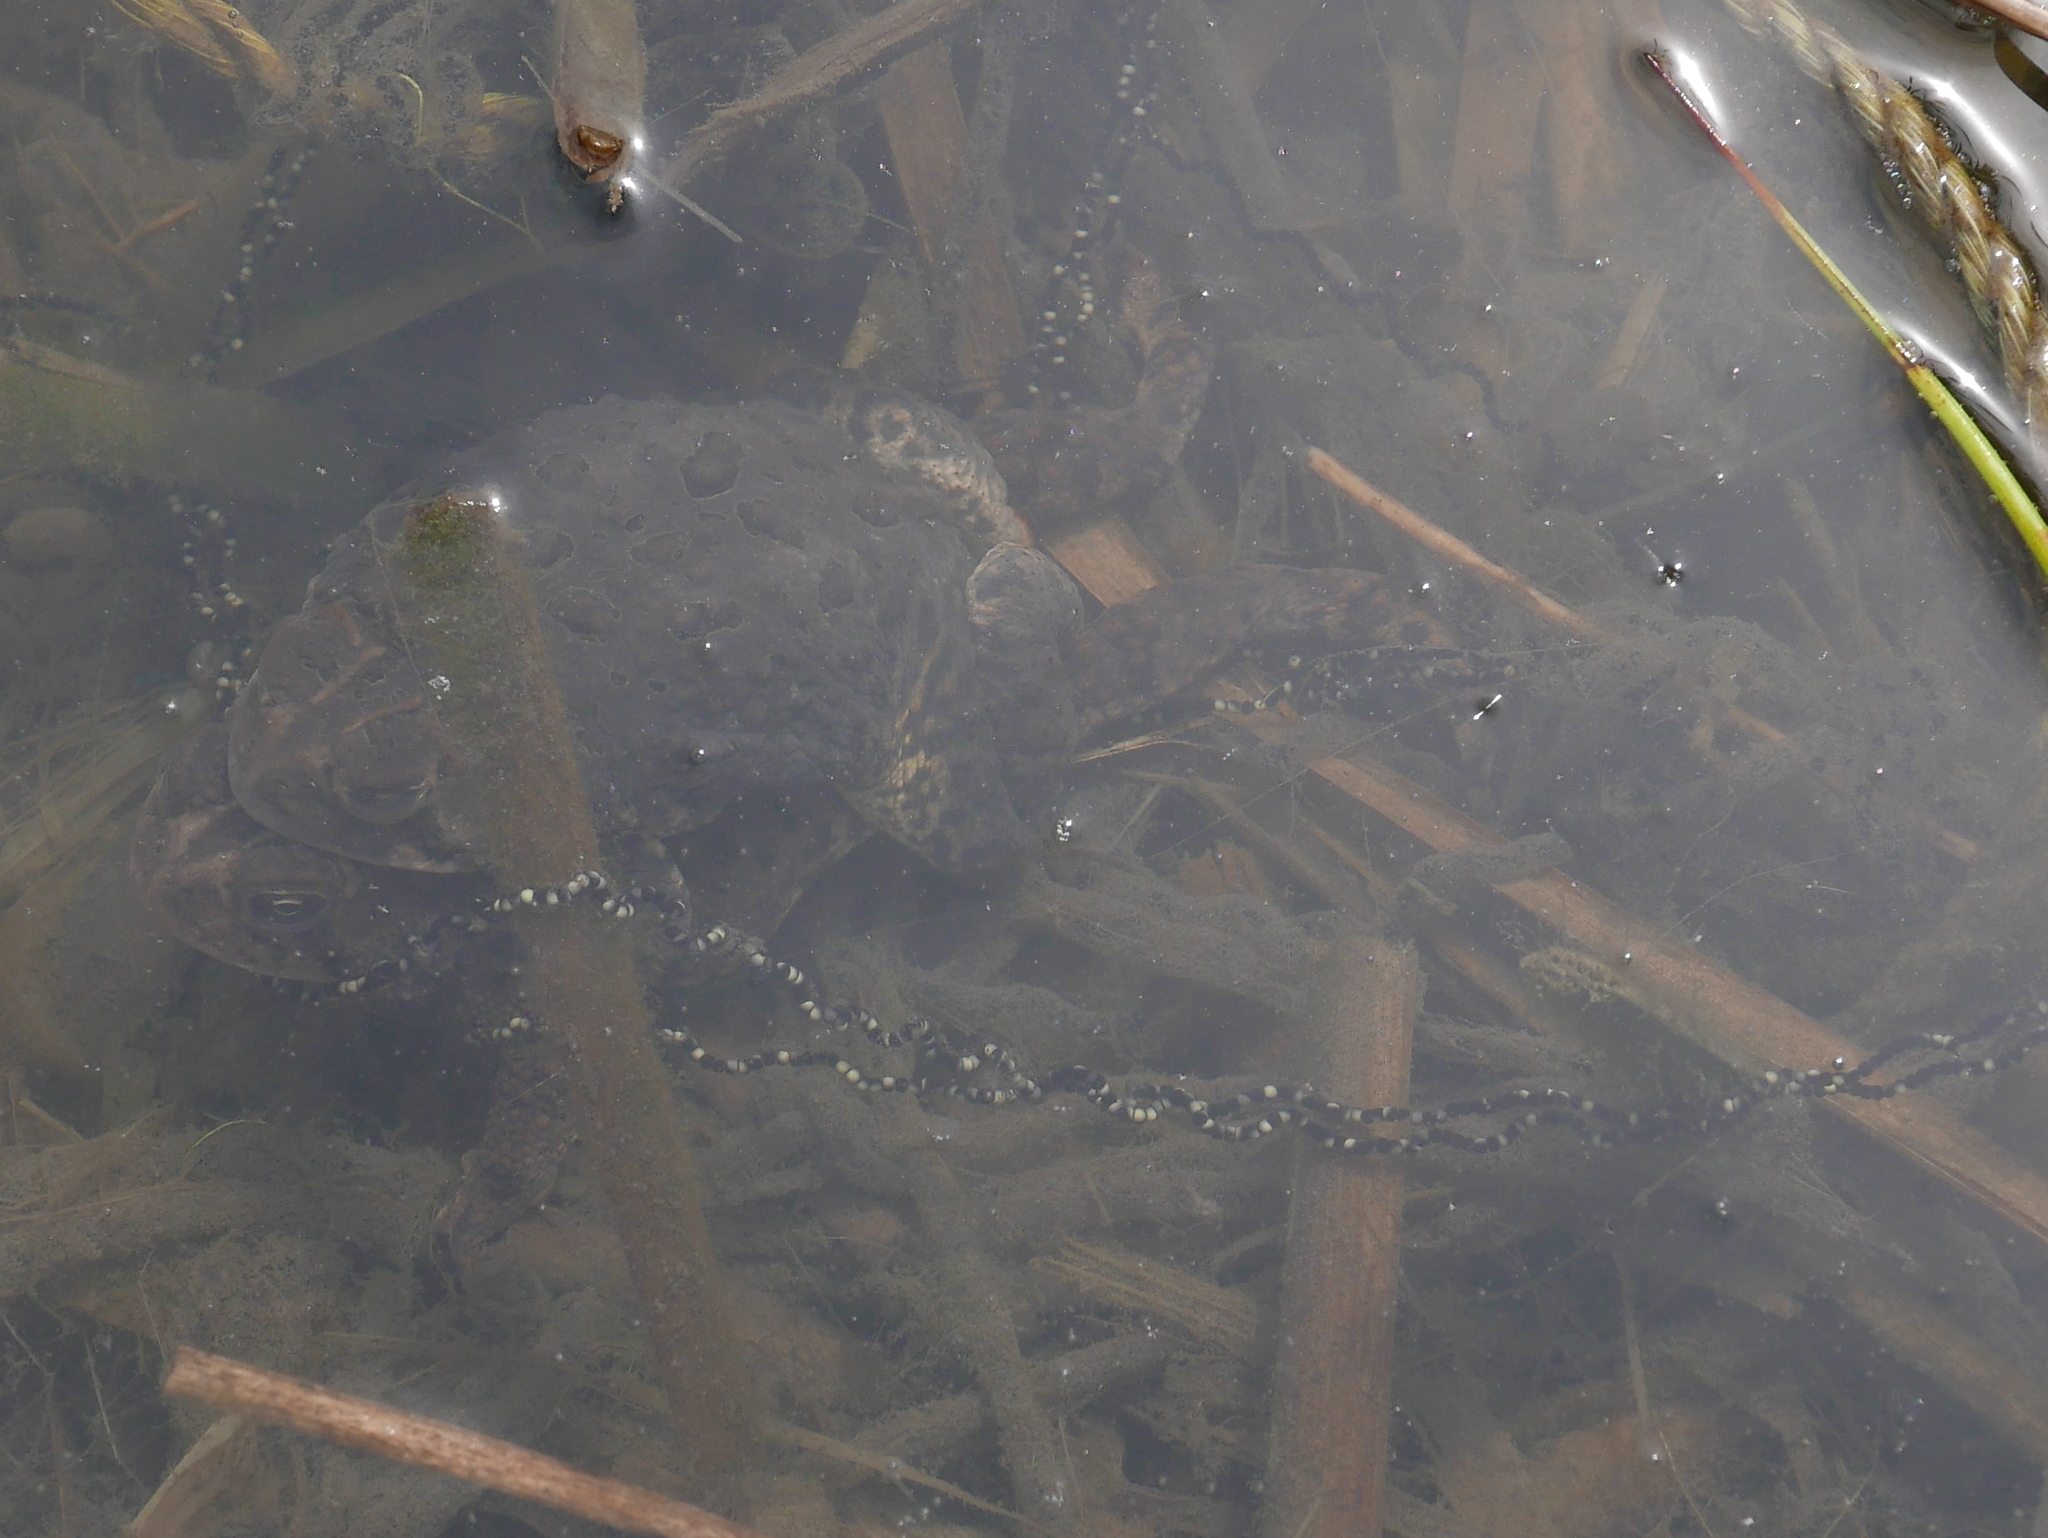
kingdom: Animalia
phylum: Chordata
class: Amphibia
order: Anura
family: Bufonidae
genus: Anaxyrus
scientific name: Anaxyrus americanus
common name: American toad
